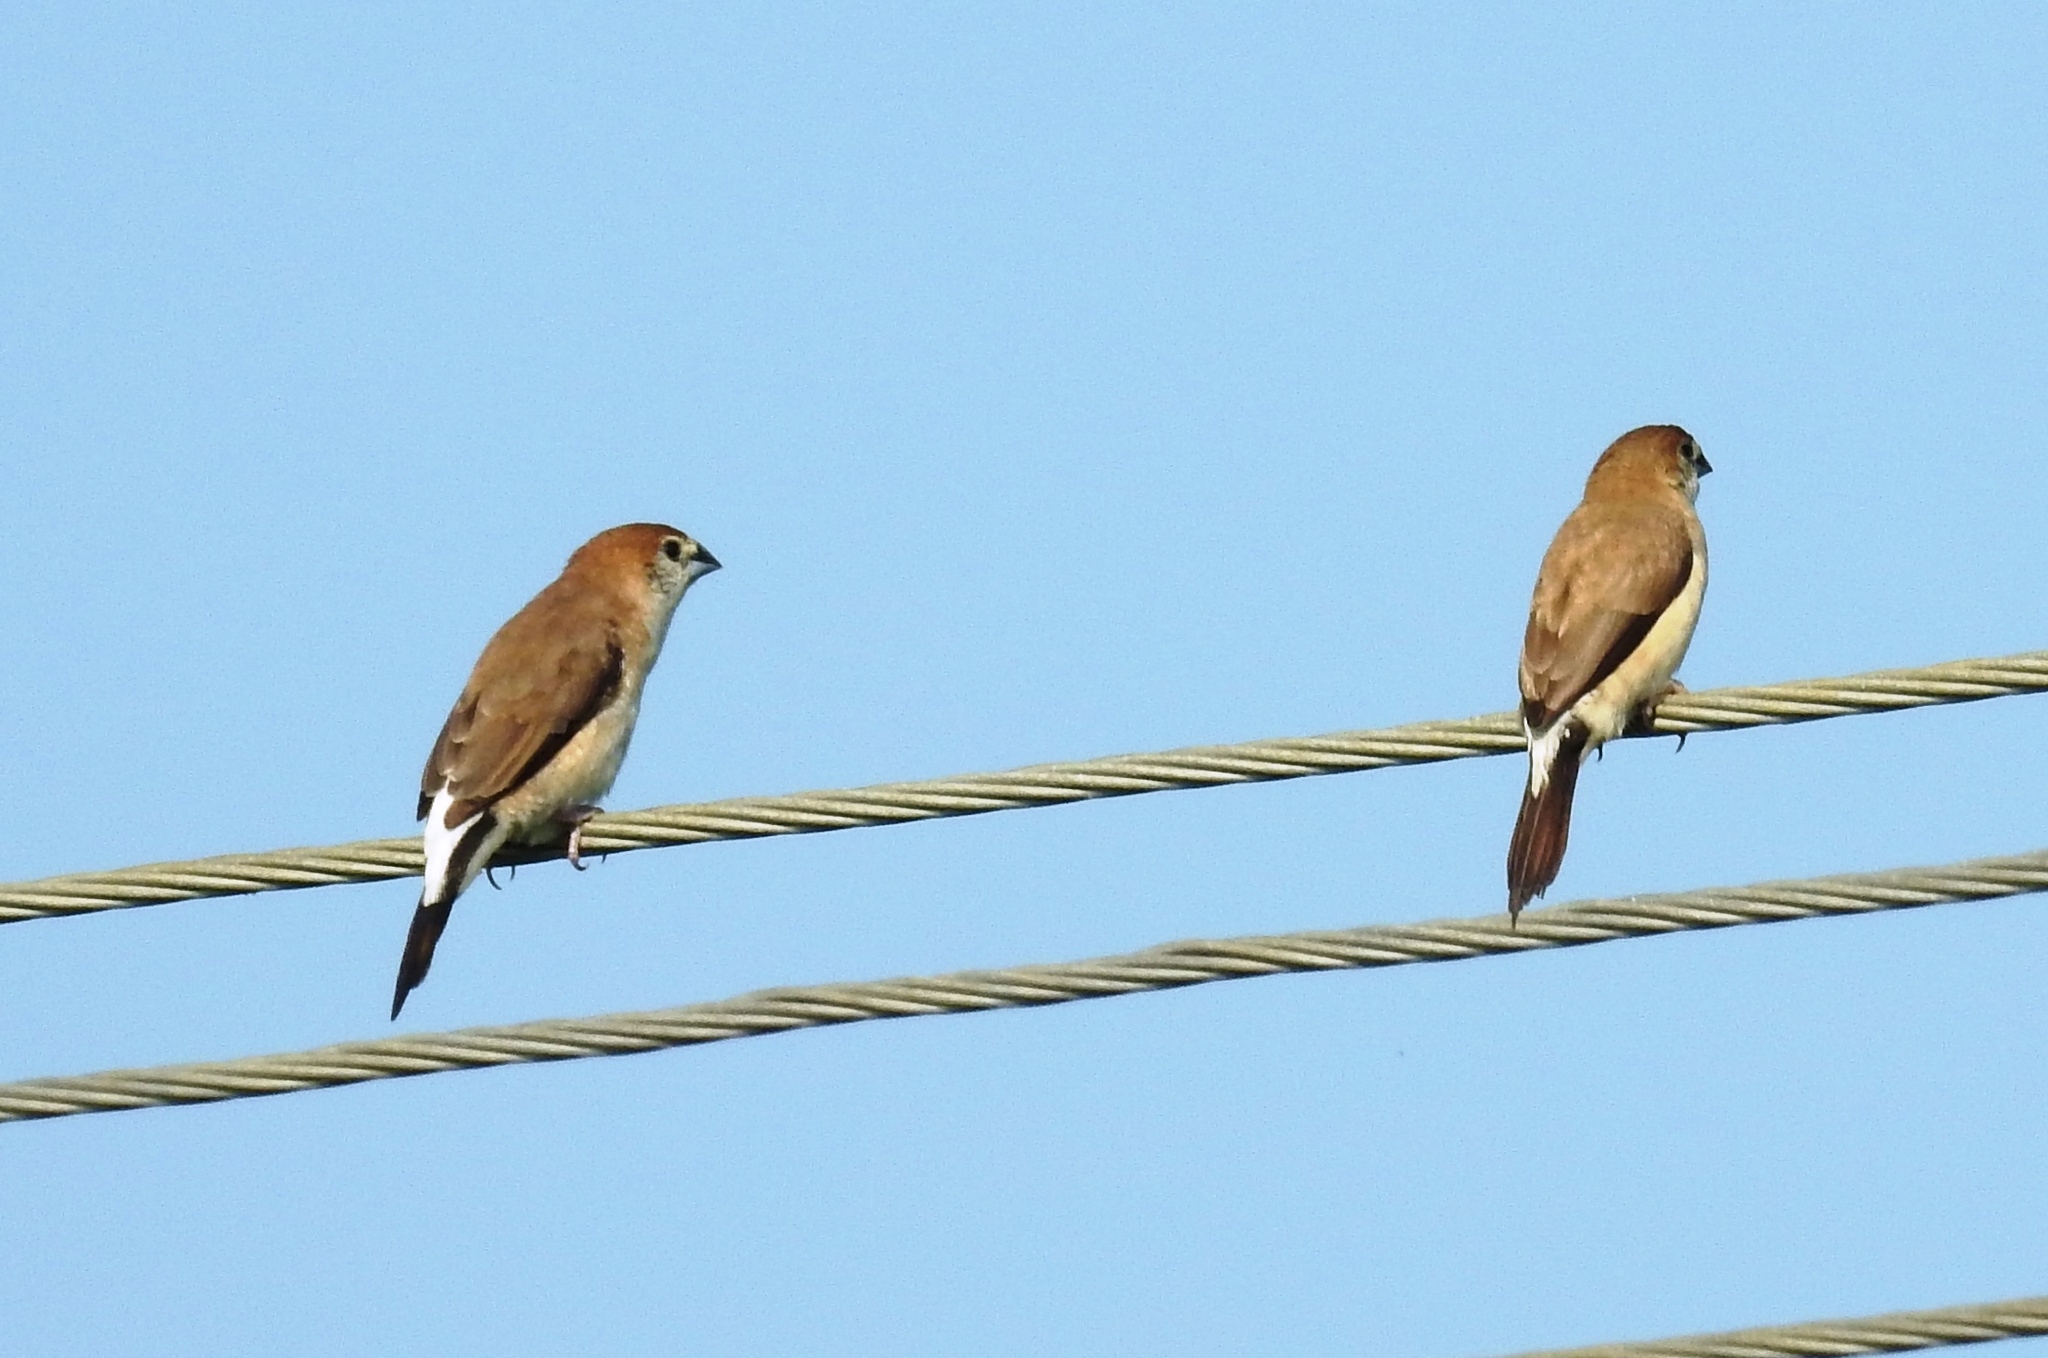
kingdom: Animalia
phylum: Chordata
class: Aves
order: Passeriformes
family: Estrildidae
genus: Euodice
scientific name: Euodice malabarica
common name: Indian silverbill
